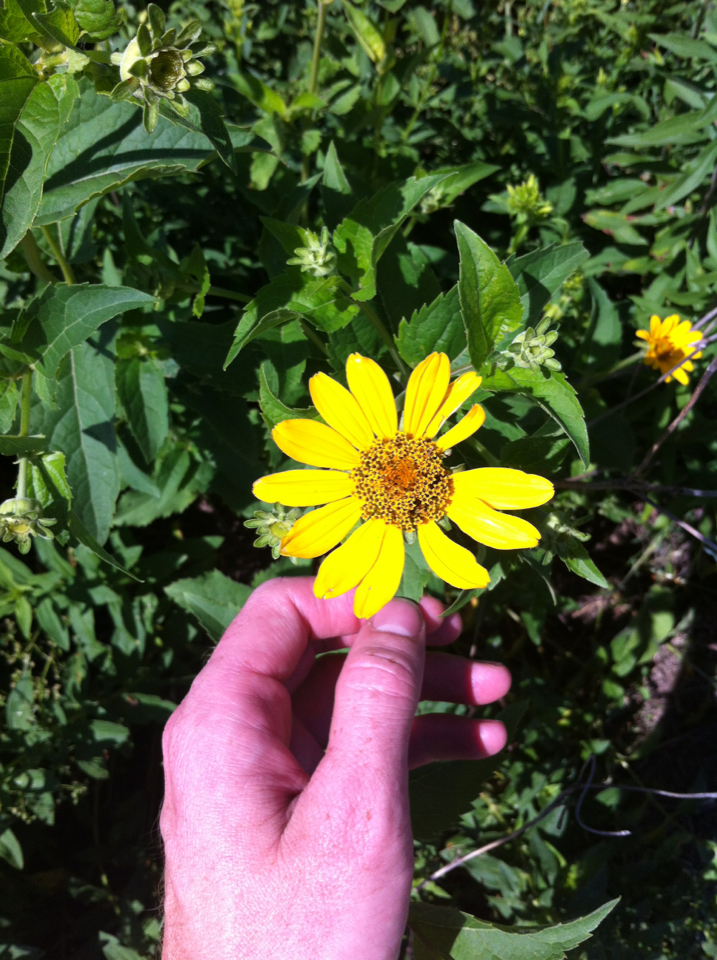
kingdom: Plantae
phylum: Tracheophyta
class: Magnoliopsida
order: Asterales
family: Asteraceae
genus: Heliopsis
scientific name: Heliopsis helianthoides
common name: False sunflower
